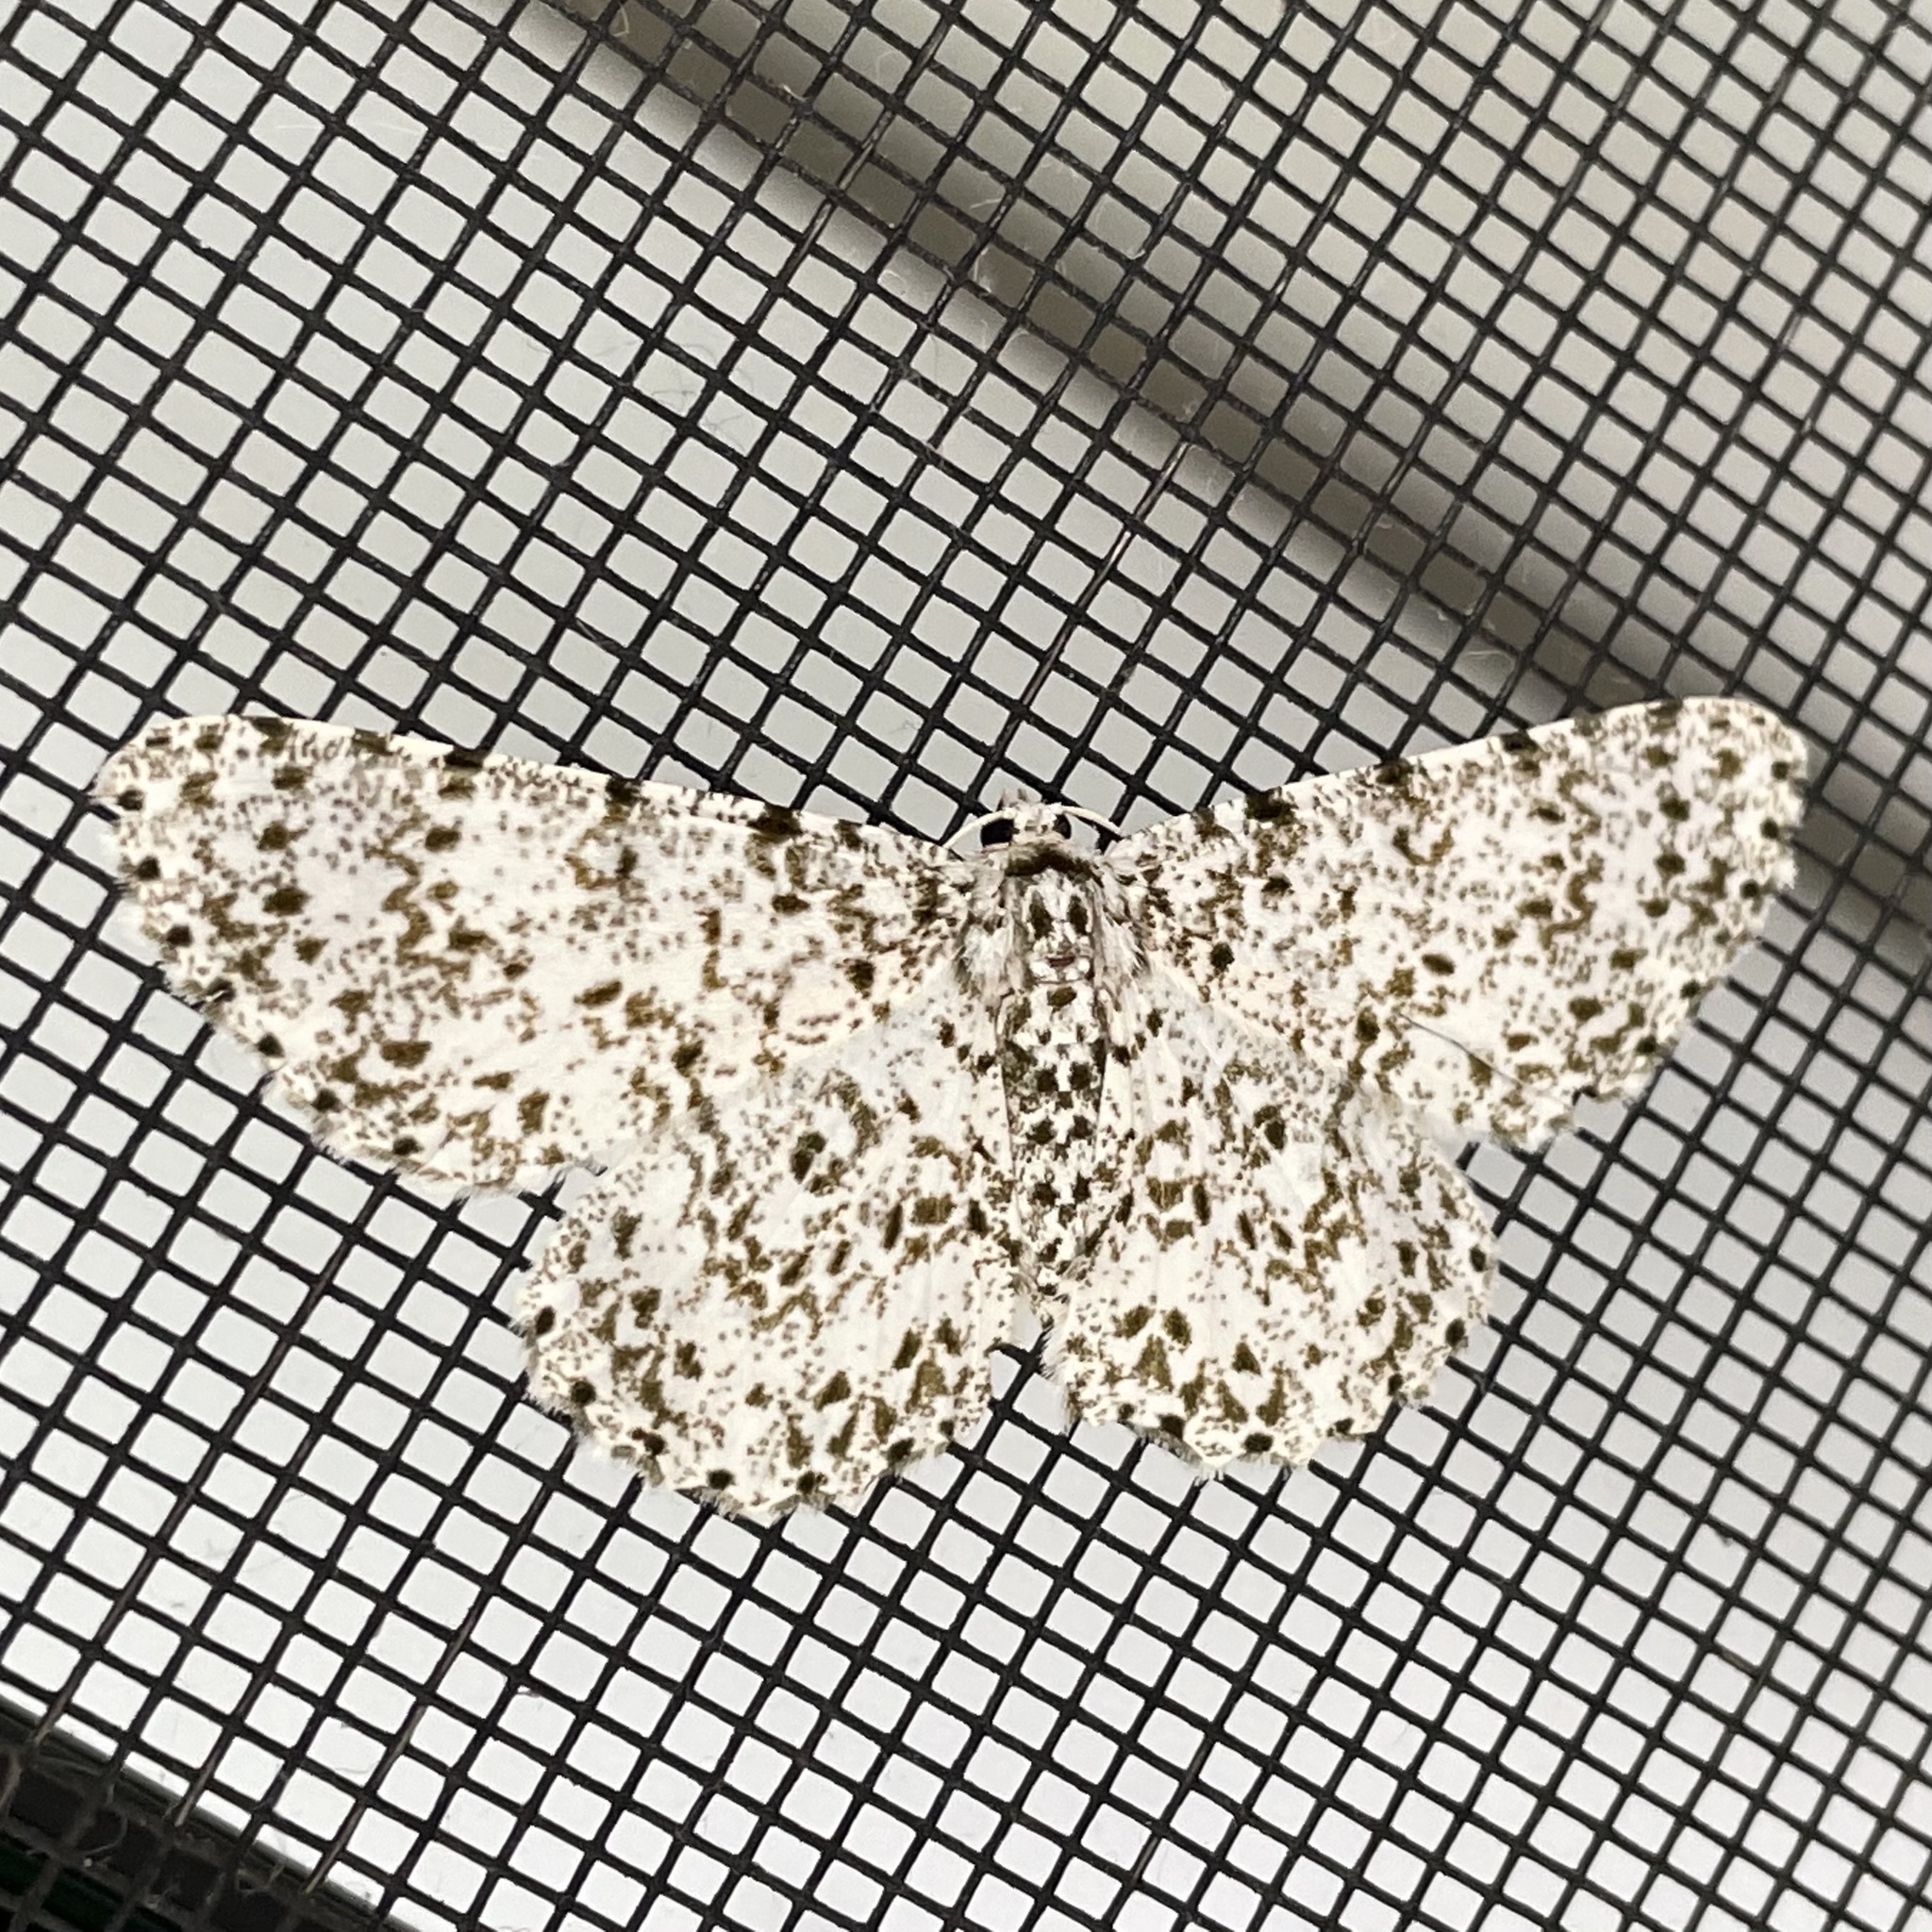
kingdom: Animalia
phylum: Arthropoda
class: Insecta
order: Lepidoptera
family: Geometridae
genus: Catoria
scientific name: Catoria camelaria
